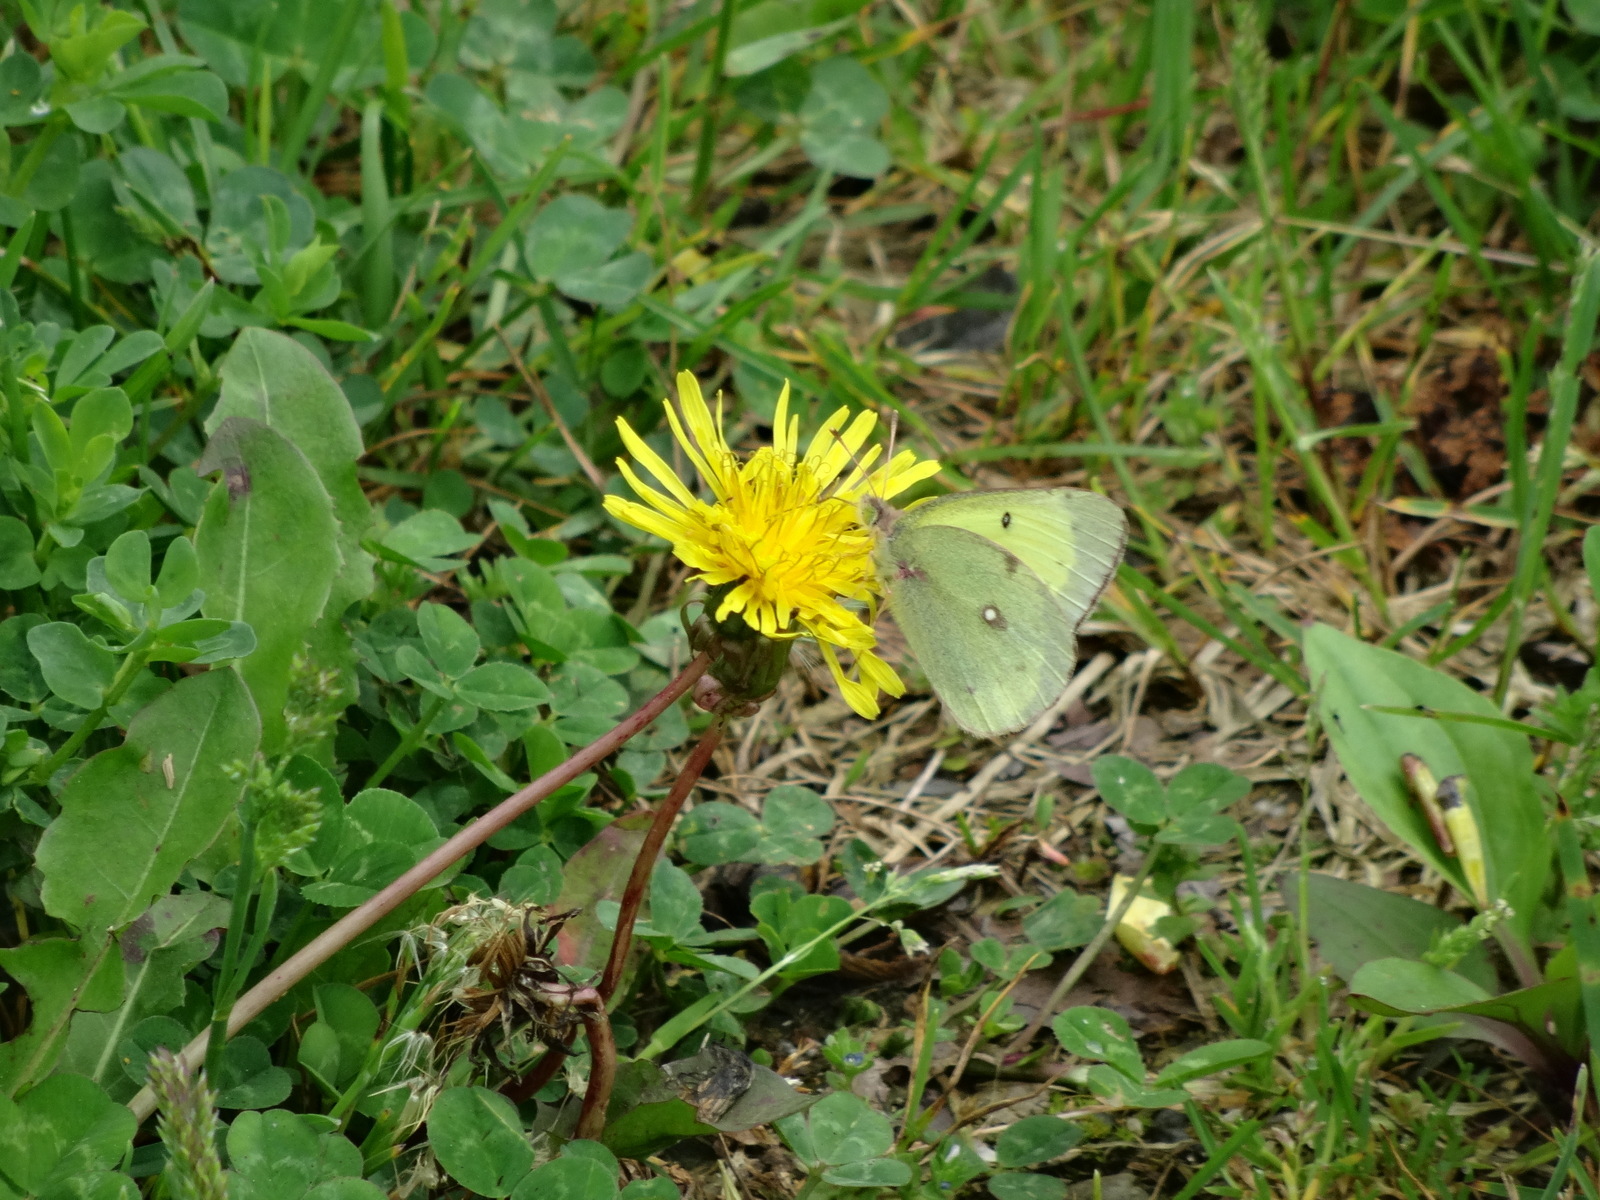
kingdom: Animalia
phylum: Arthropoda
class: Insecta
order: Lepidoptera
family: Pieridae
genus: Colias
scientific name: Colias philodice
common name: Clouded sulphur
